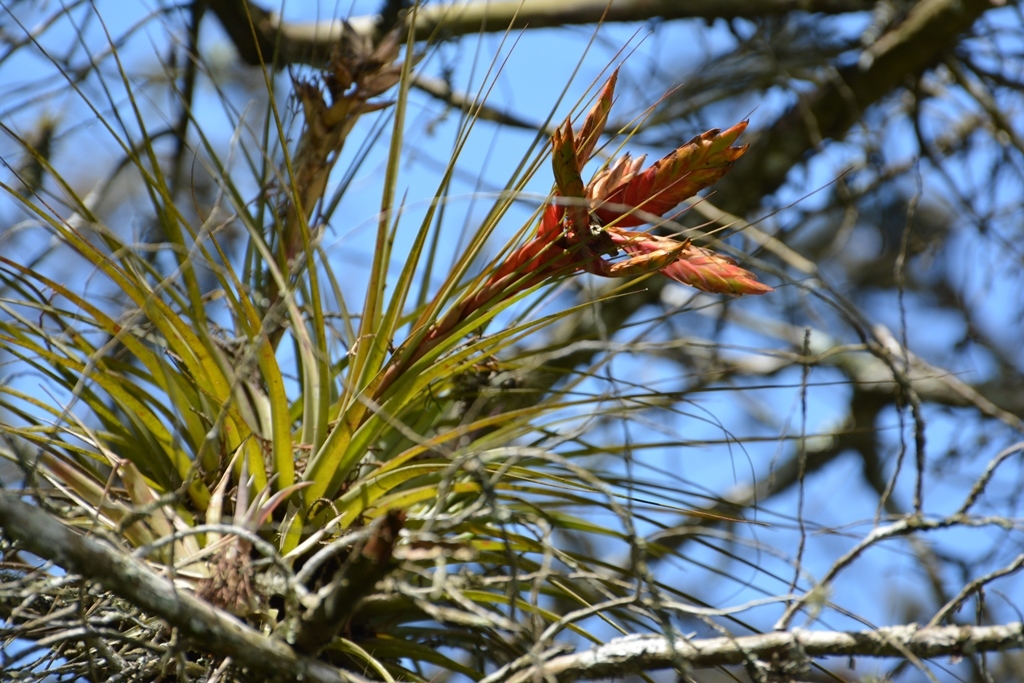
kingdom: Plantae
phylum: Tracheophyta
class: Liliopsida
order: Poales
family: Bromeliaceae
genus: Tillandsia
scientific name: Tillandsia fasciculata
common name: Giant airplant
